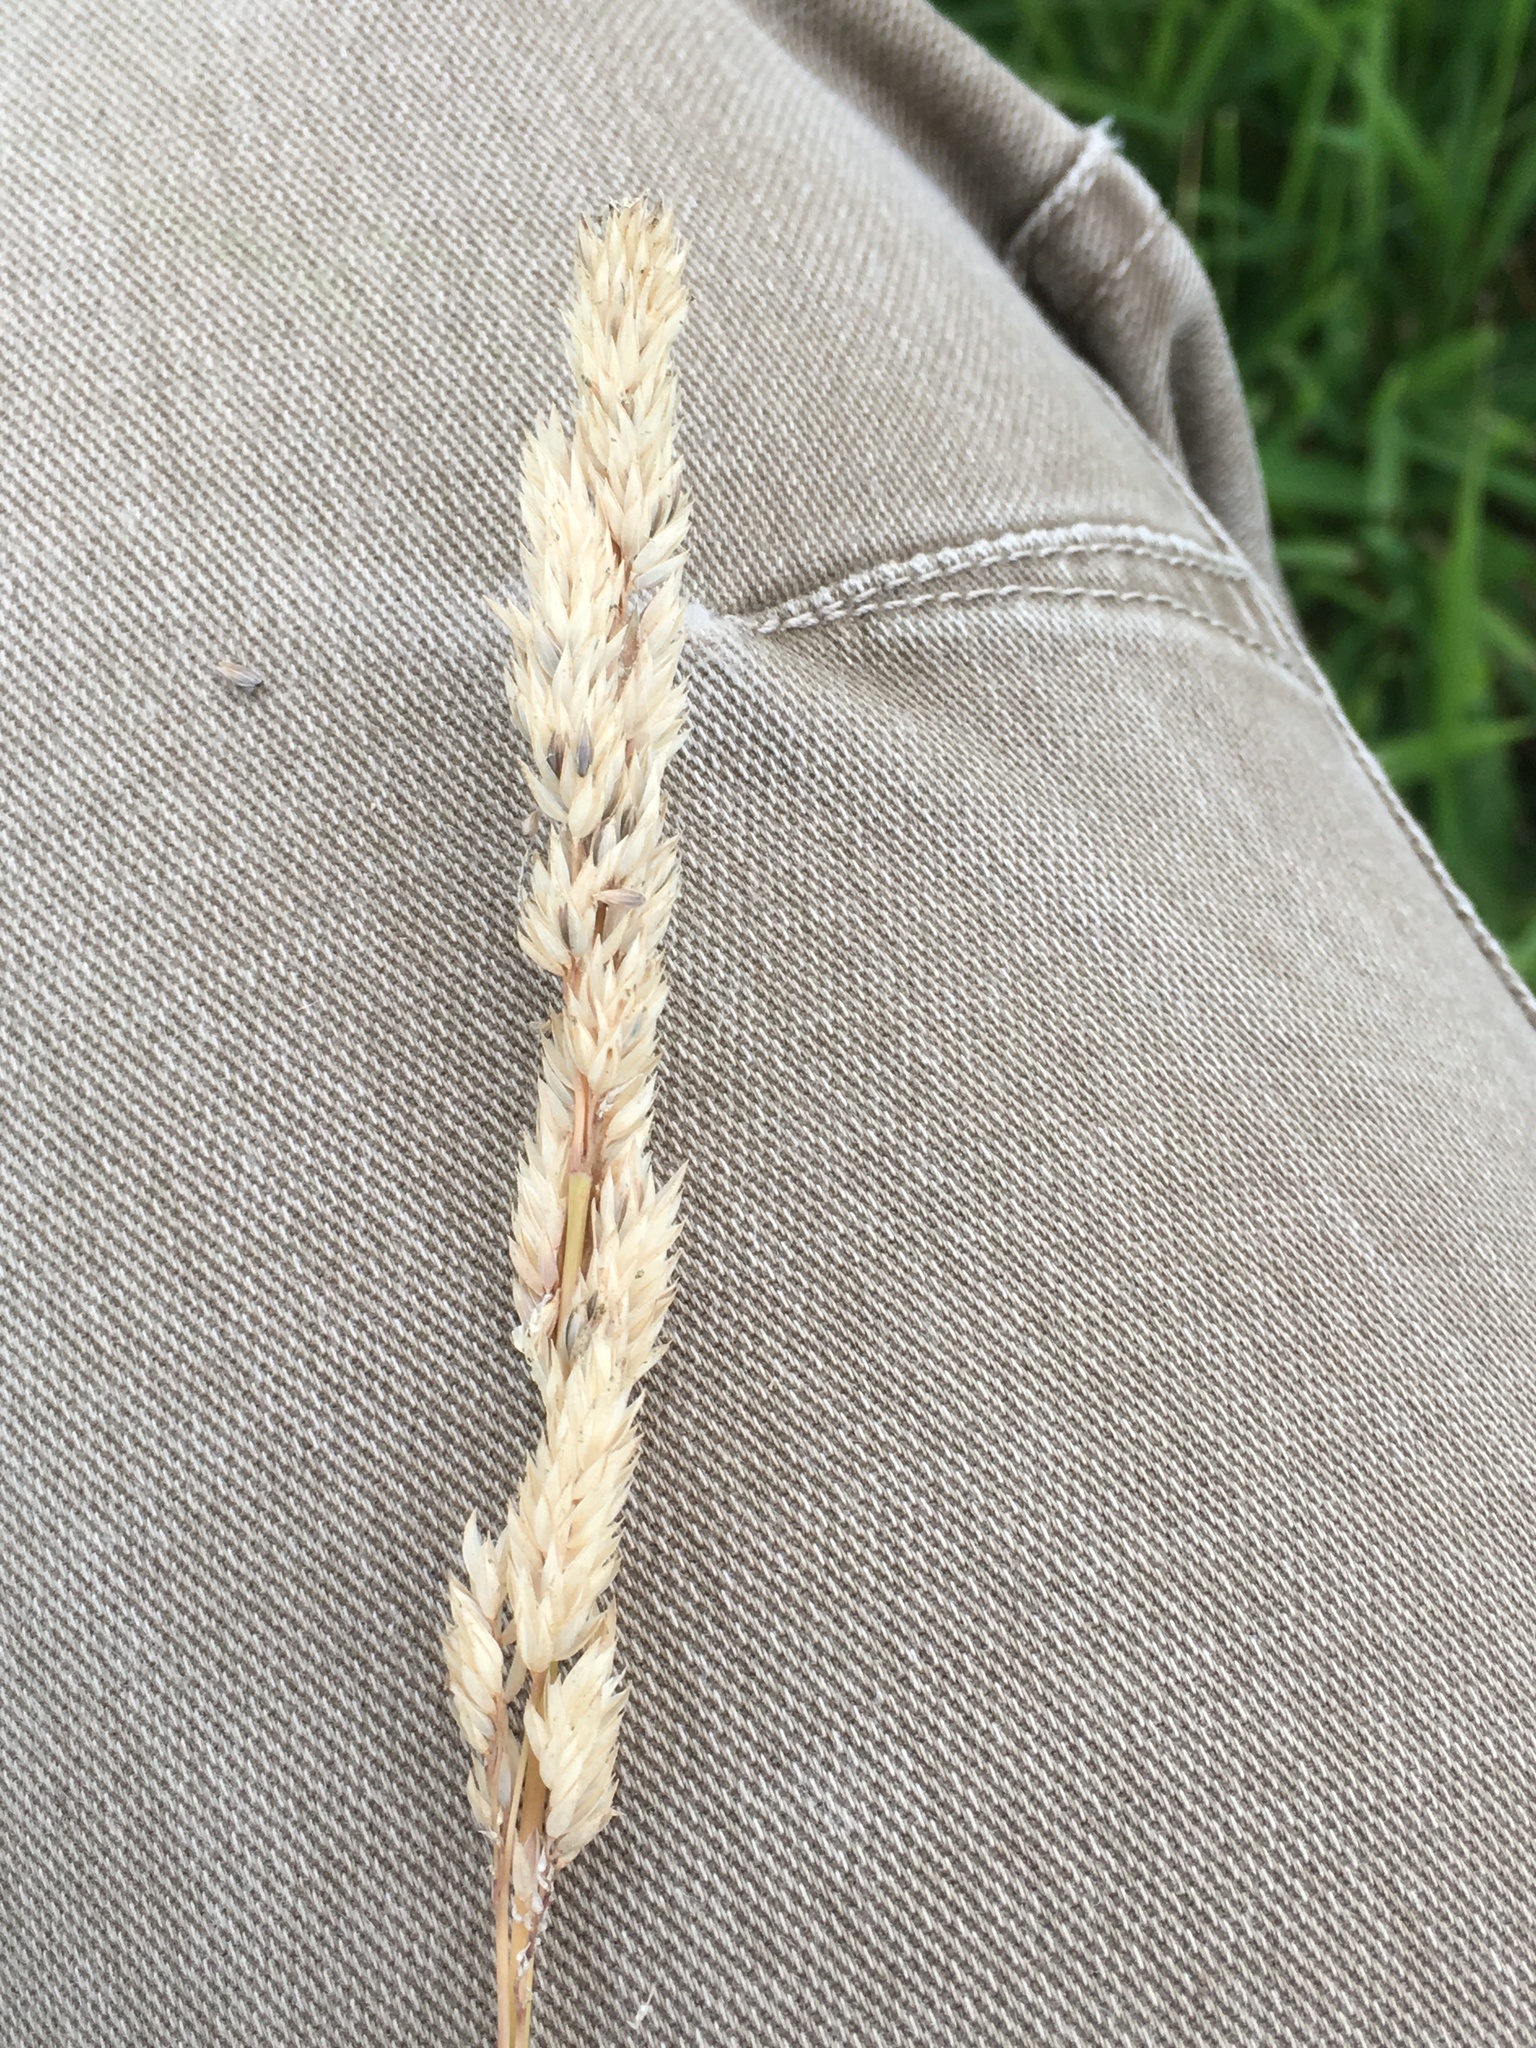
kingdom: Plantae
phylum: Tracheophyta
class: Liliopsida
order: Poales
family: Poaceae
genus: Phalaris
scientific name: Phalaris arundinacea
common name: Reed canary-grass
